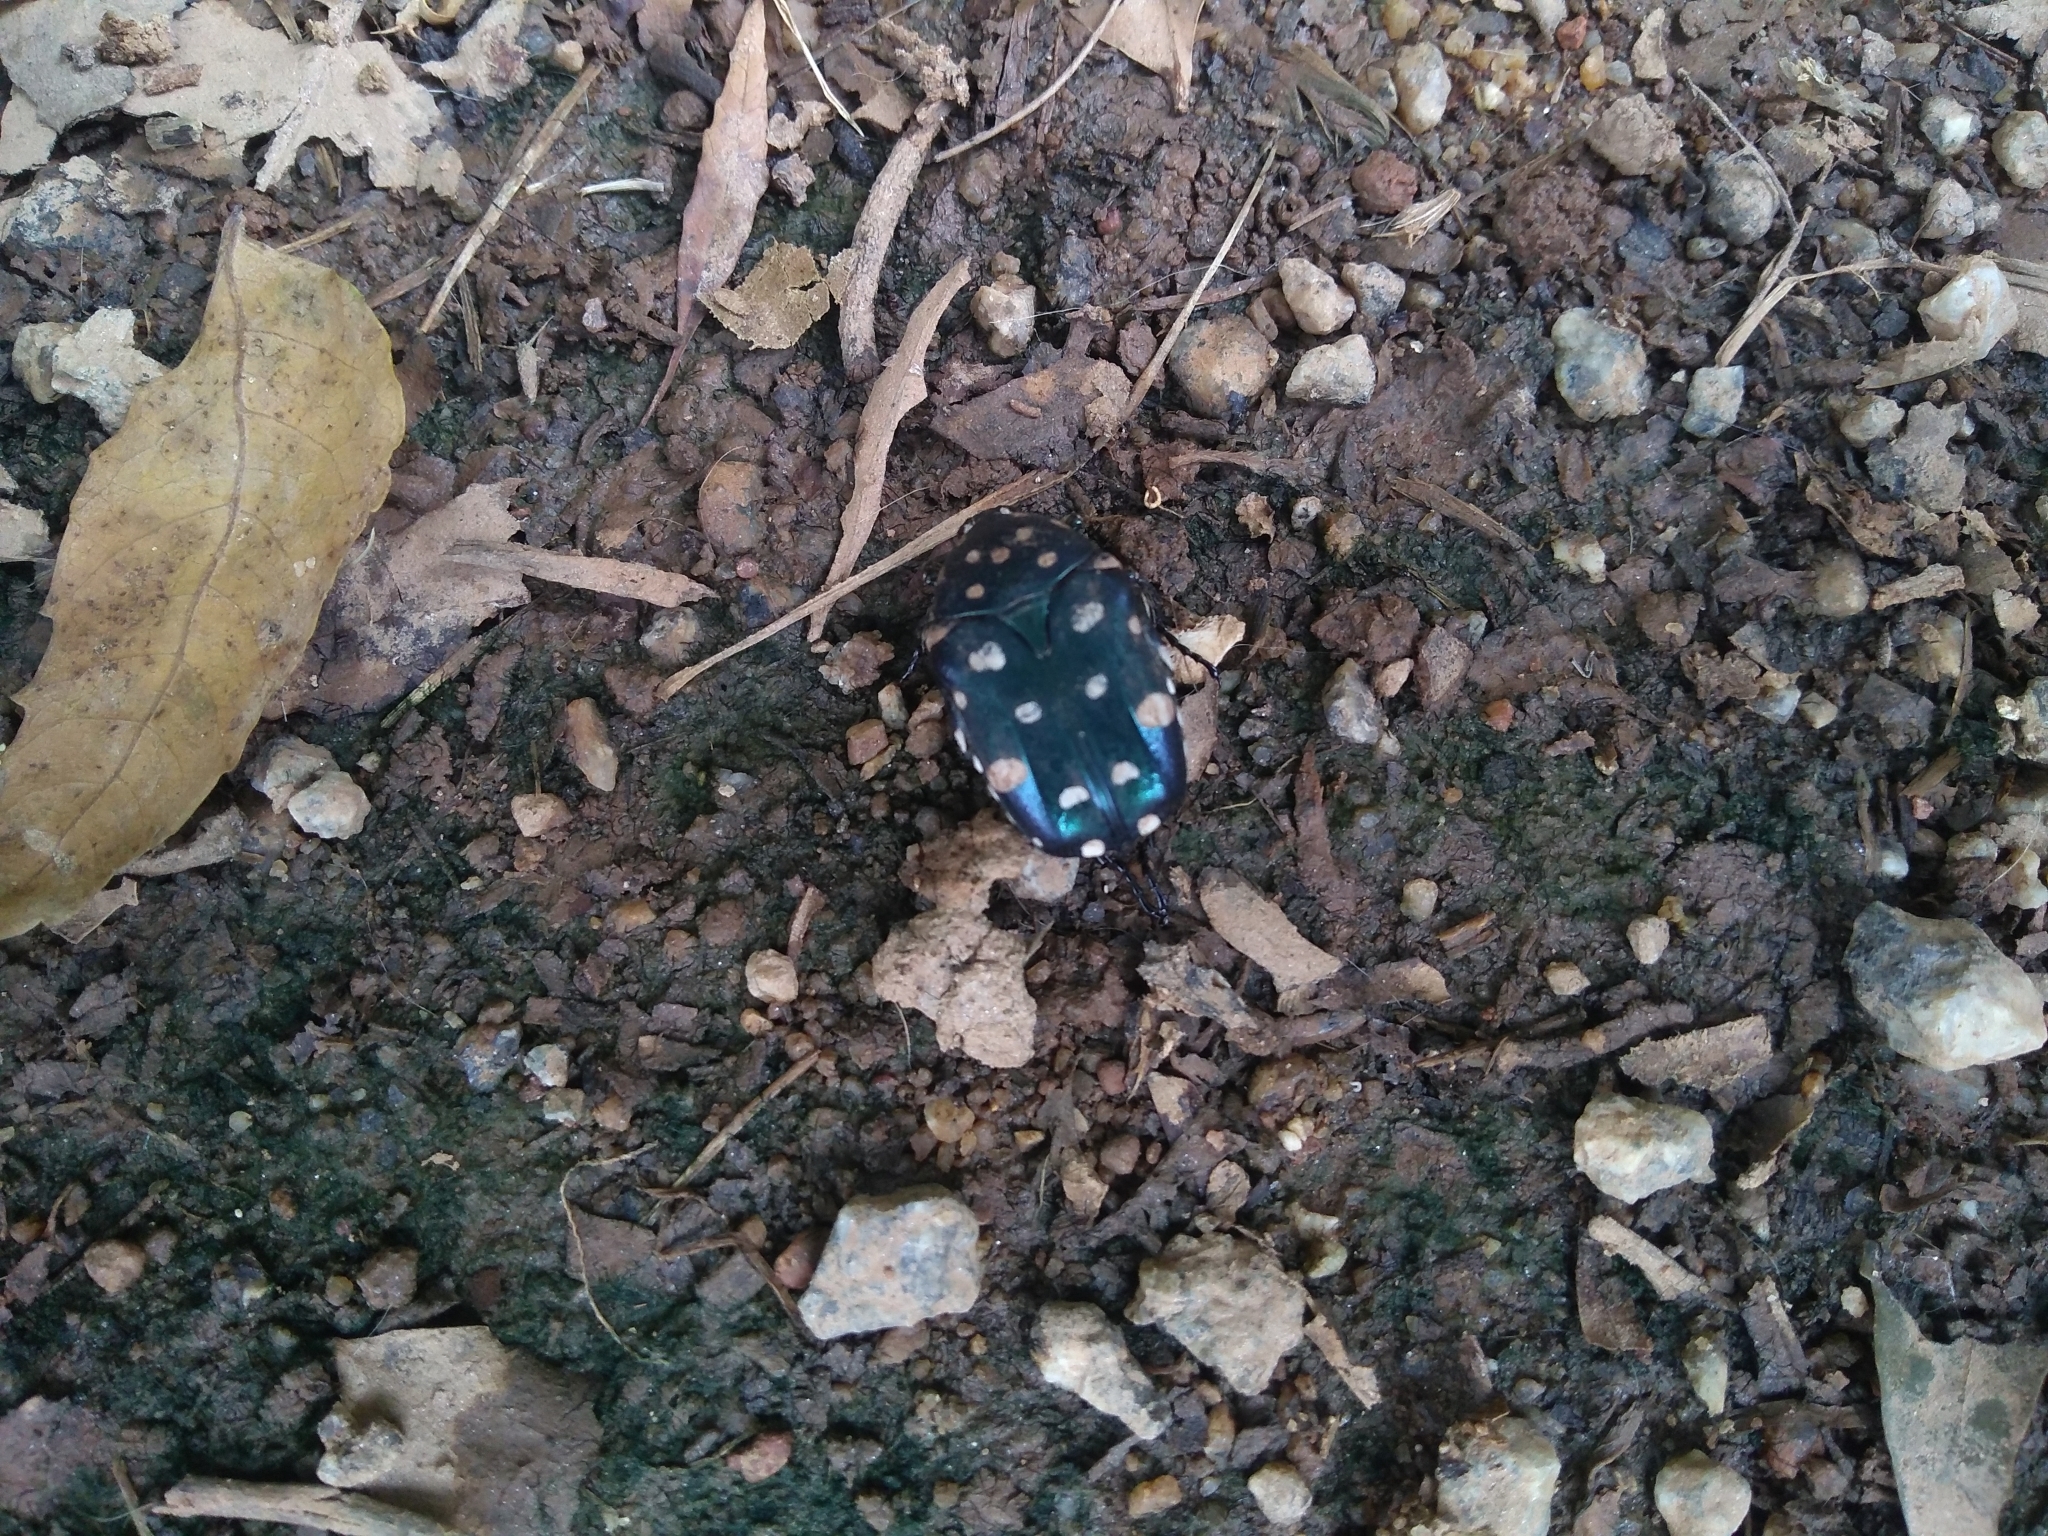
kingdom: Animalia
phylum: Arthropoda
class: Insecta
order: Coleoptera
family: Scarabaeidae
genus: Indoprotaetia
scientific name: Indoprotaetia
